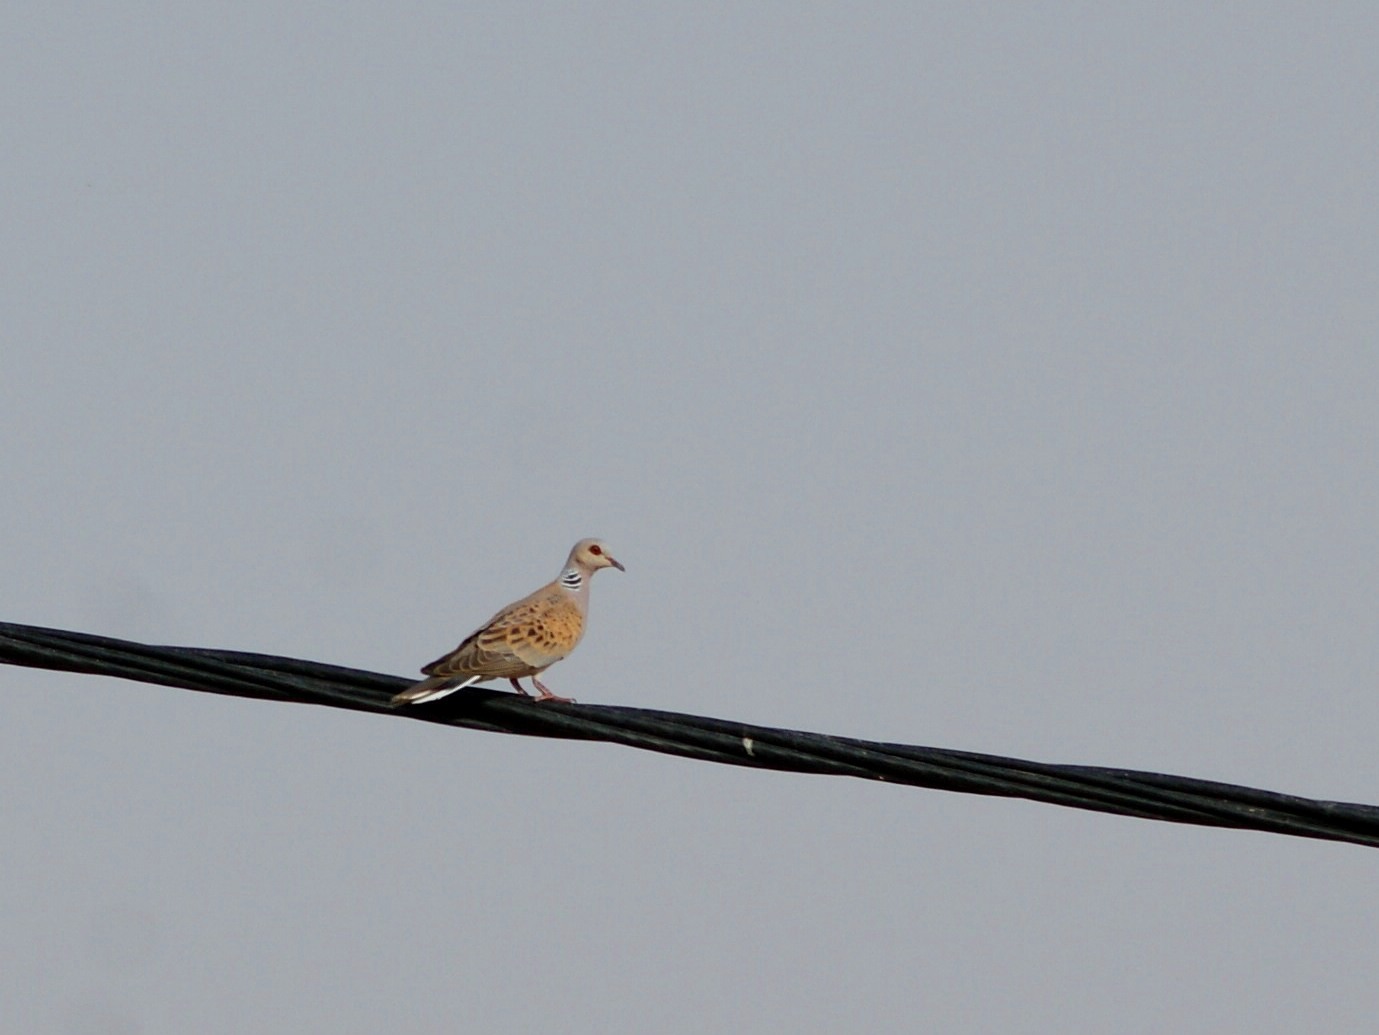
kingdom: Animalia
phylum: Chordata
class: Aves
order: Columbiformes
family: Columbidae
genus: Streptopelia
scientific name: Streptopelia turtur
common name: European turtle dove
